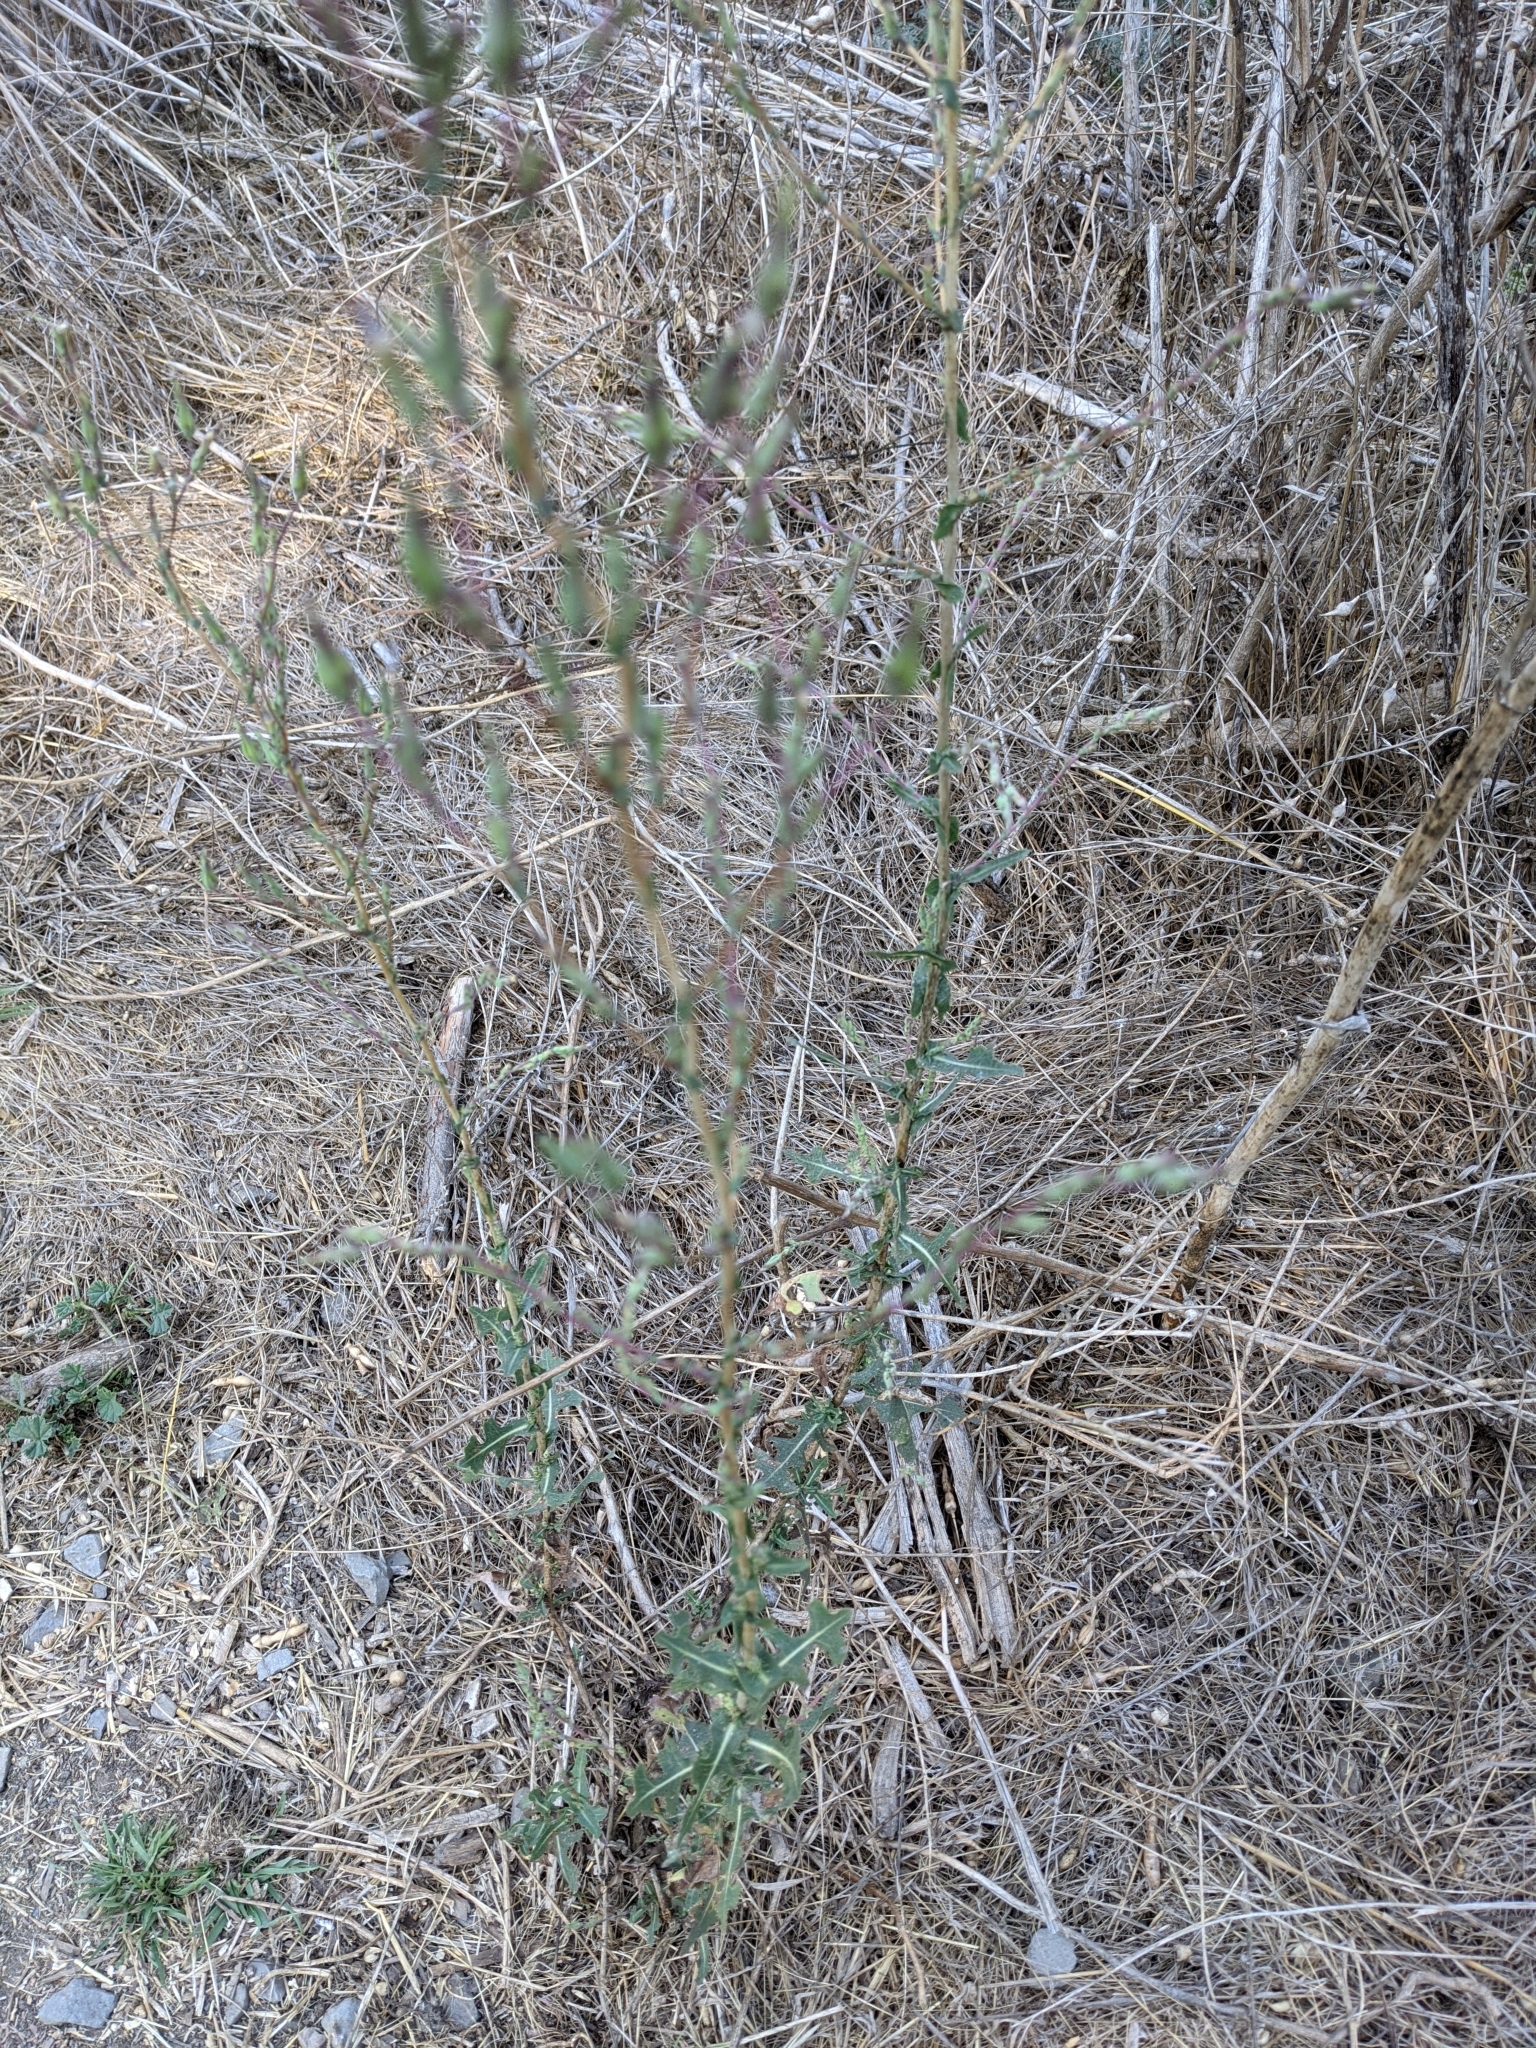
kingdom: Plantae
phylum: Tracheophyta
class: Magnoliopsida
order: Asterales
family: Asteraceae
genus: Helminthotheca
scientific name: Helminthotheca echioides
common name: Ox-tongue
